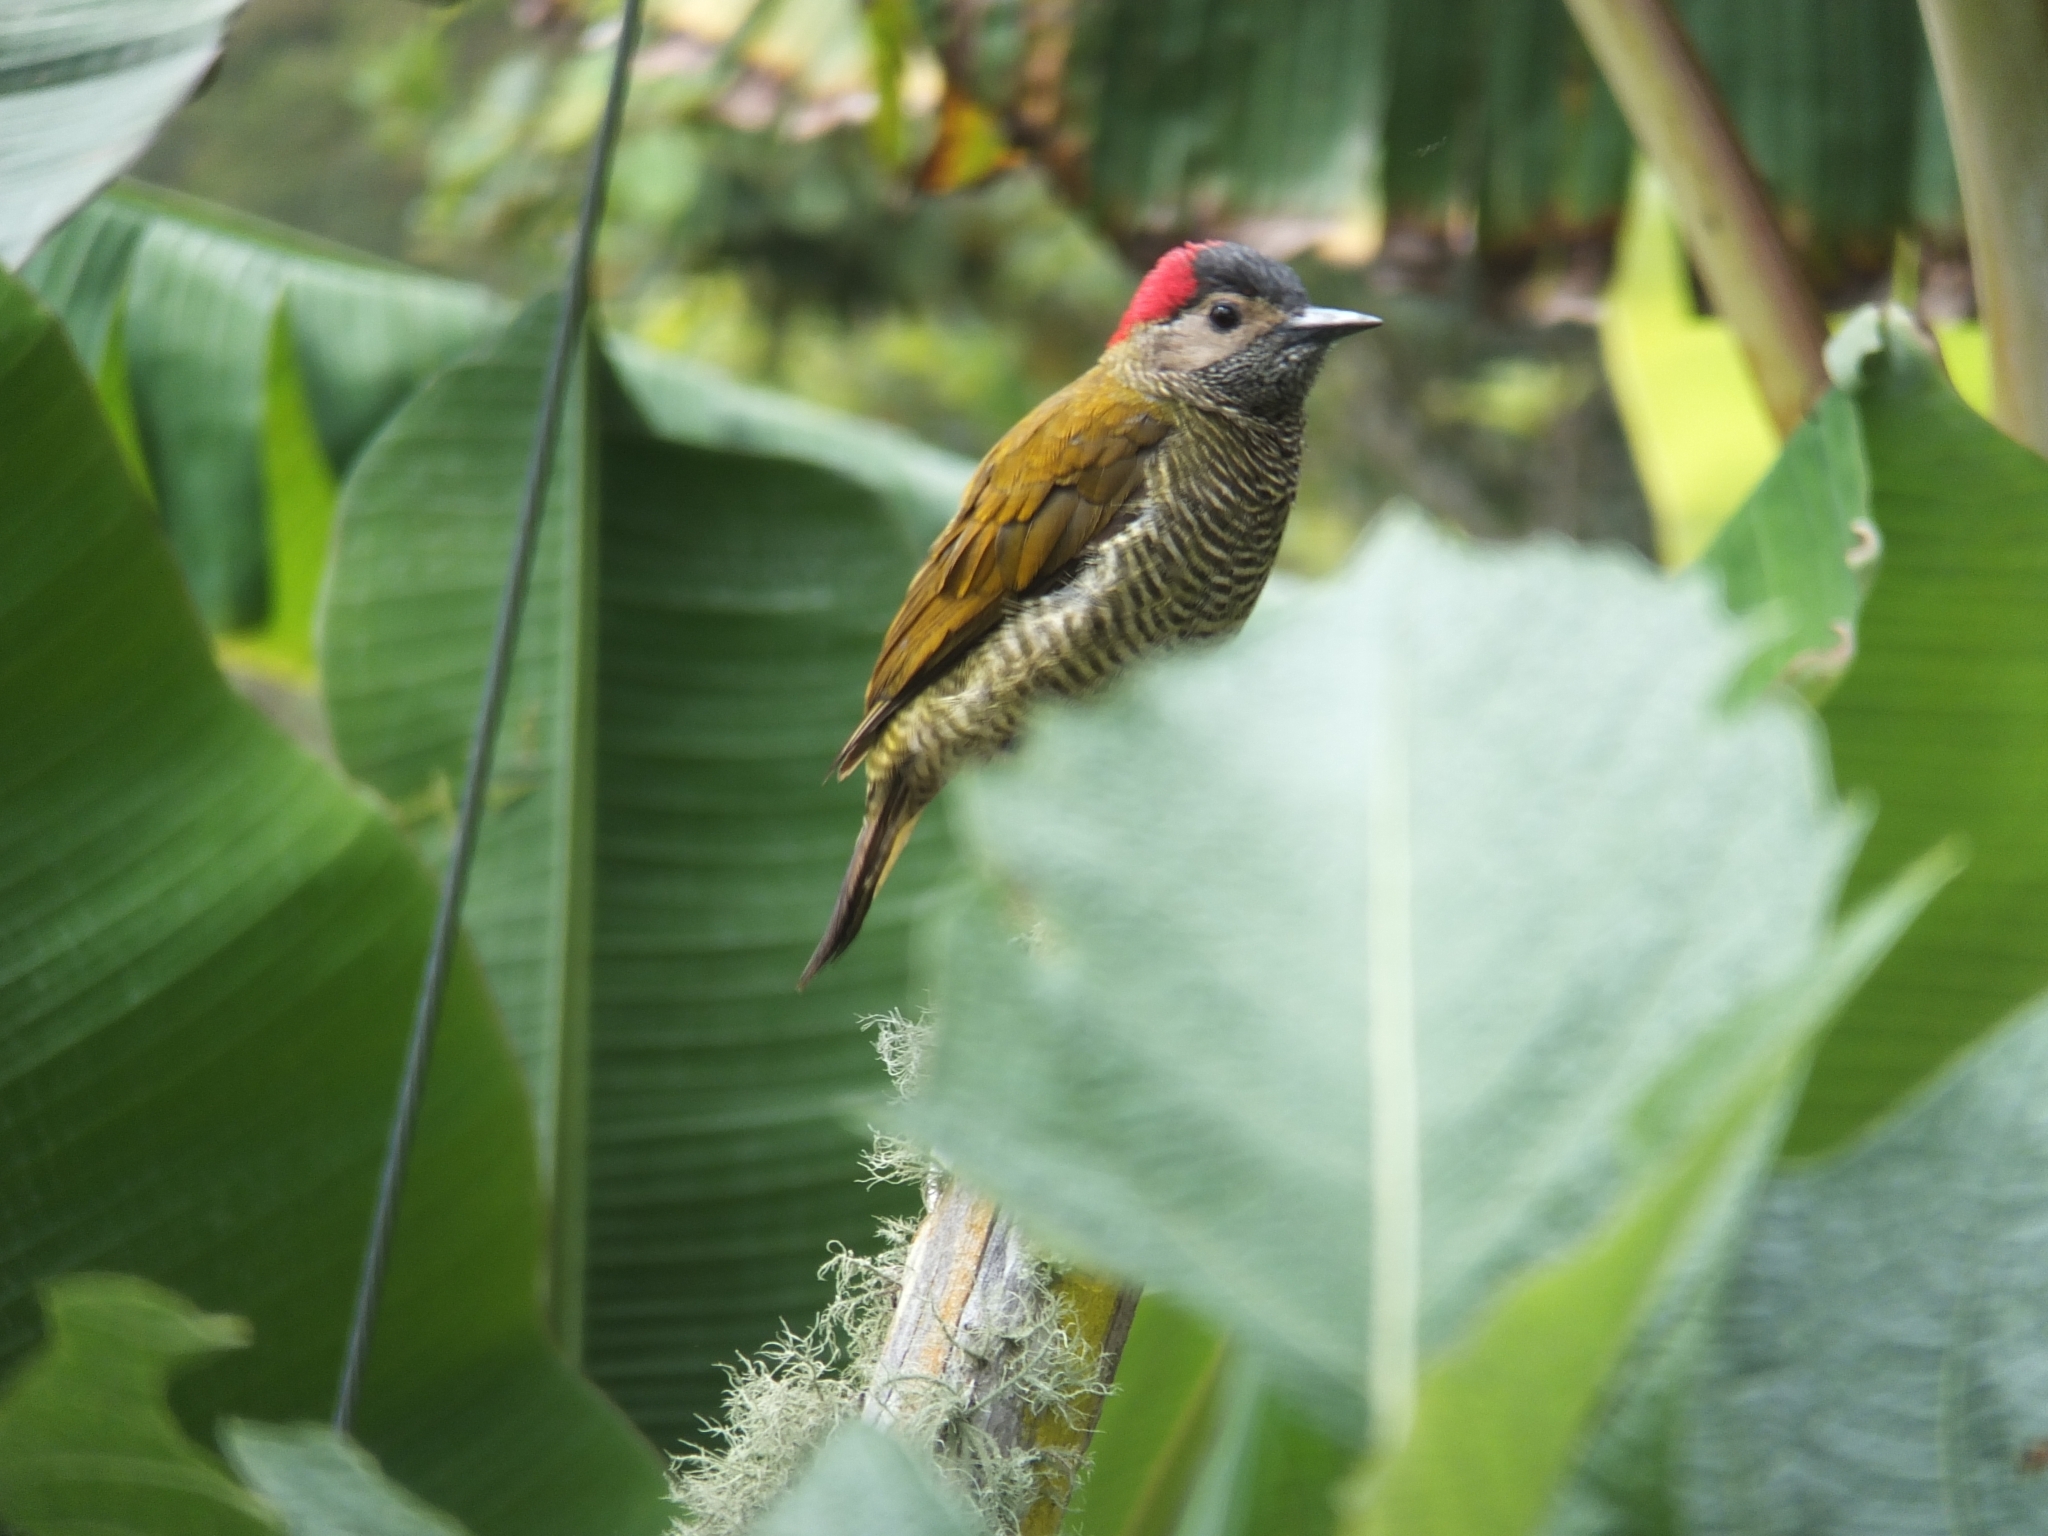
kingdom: Animalia
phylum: Chordata
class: Aves
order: Piciformes
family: Picidae
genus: Colaptes
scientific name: Colaptes rubiginosus
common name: Golden-olive woodpecker
